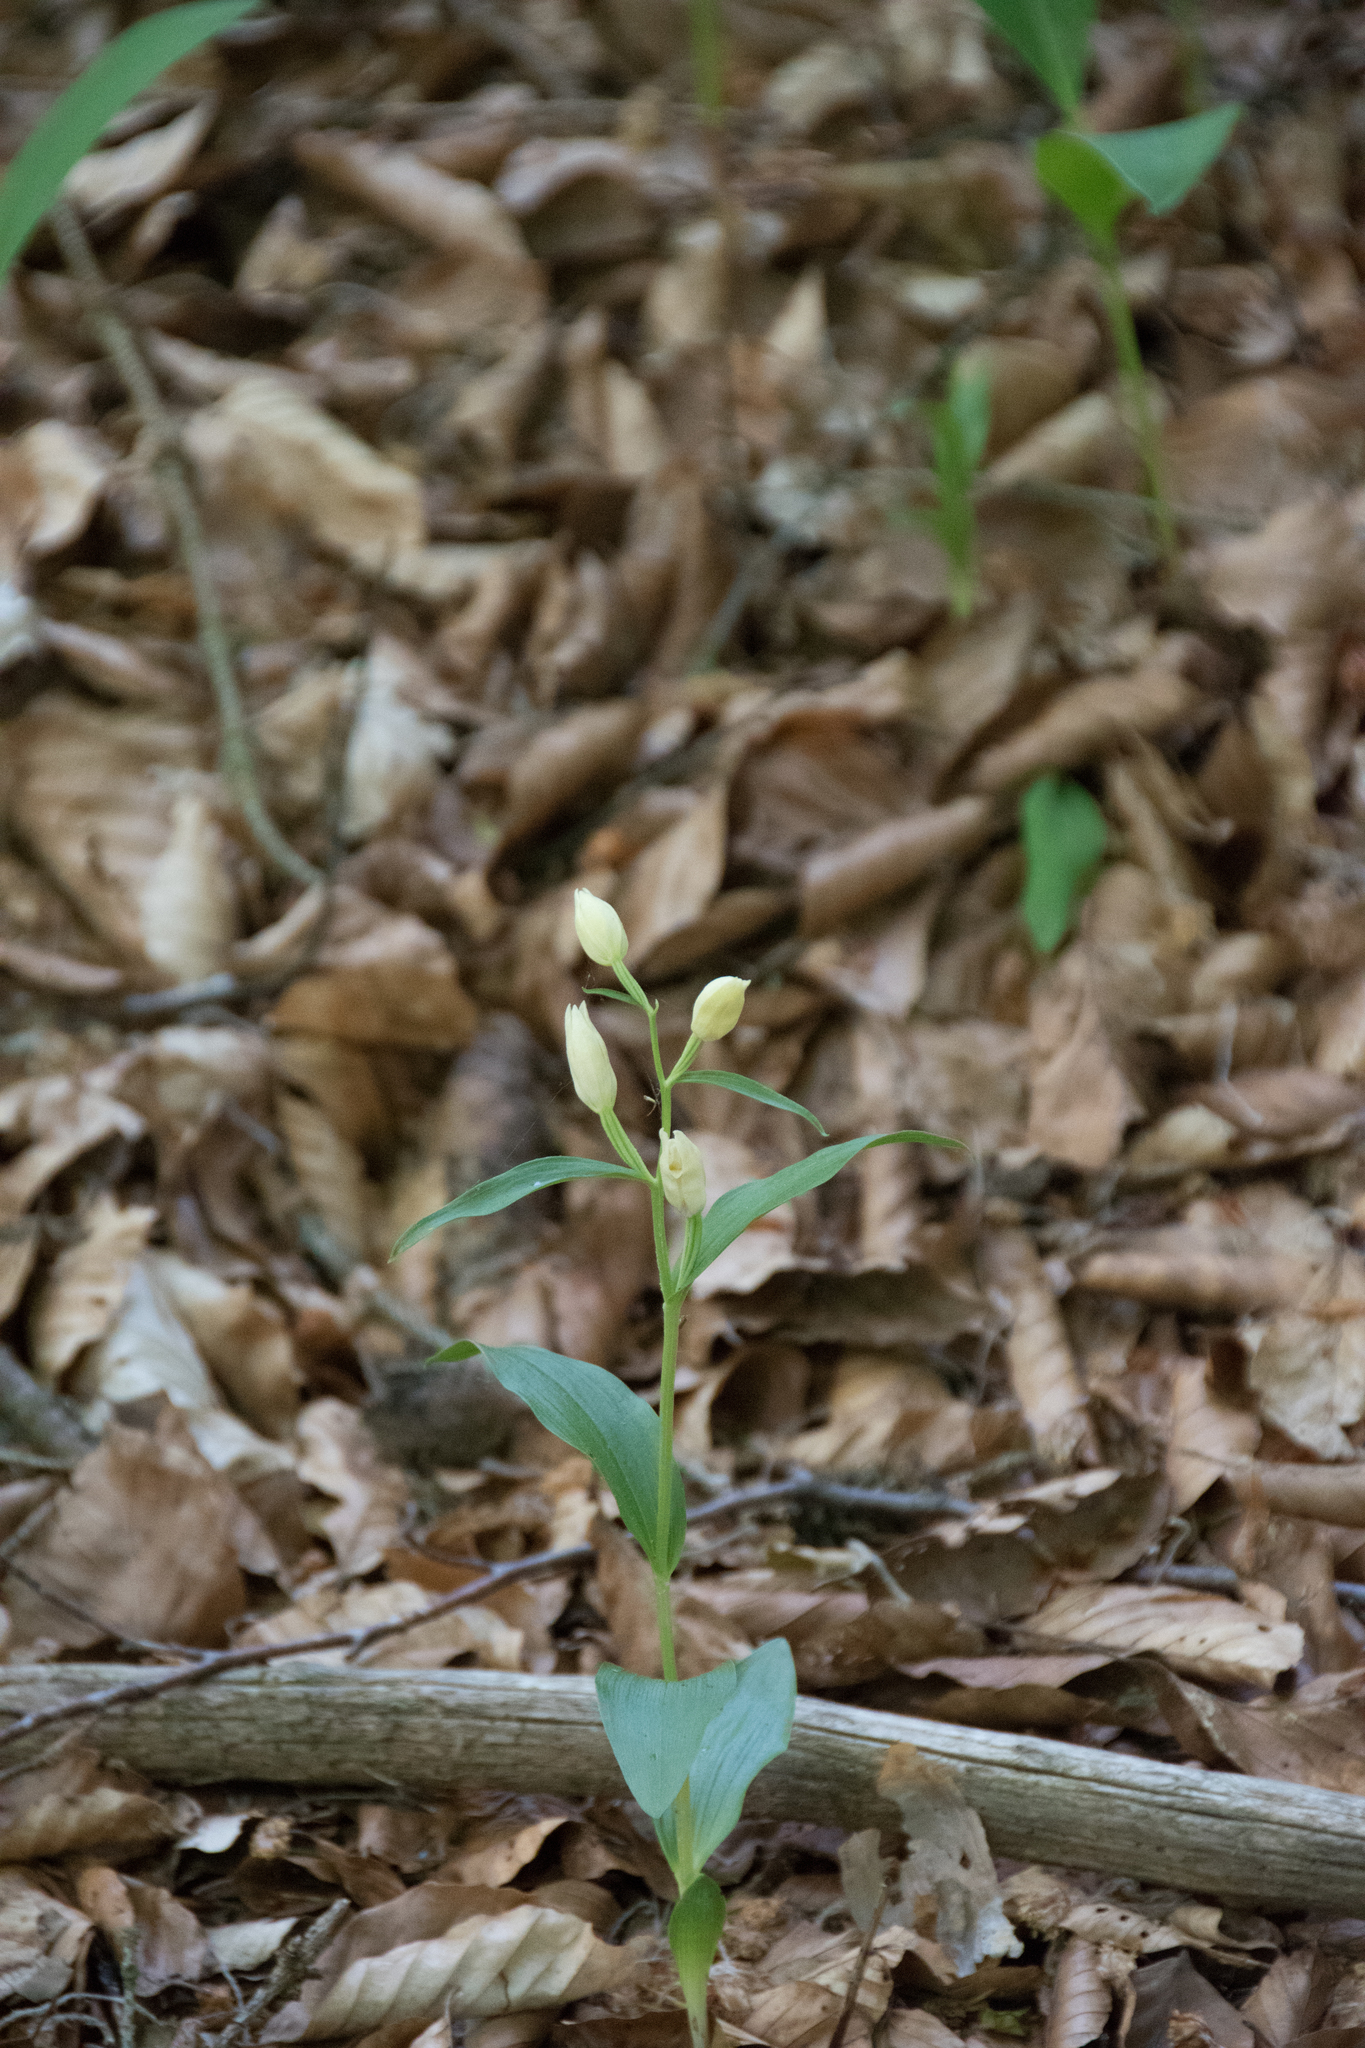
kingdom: Plantae
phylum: Tracheophyta
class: Liliopsida
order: Asparagales
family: Orchidaceae
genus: Cephalanthera
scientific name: Cephalanthera damasonium
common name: White helleborine
